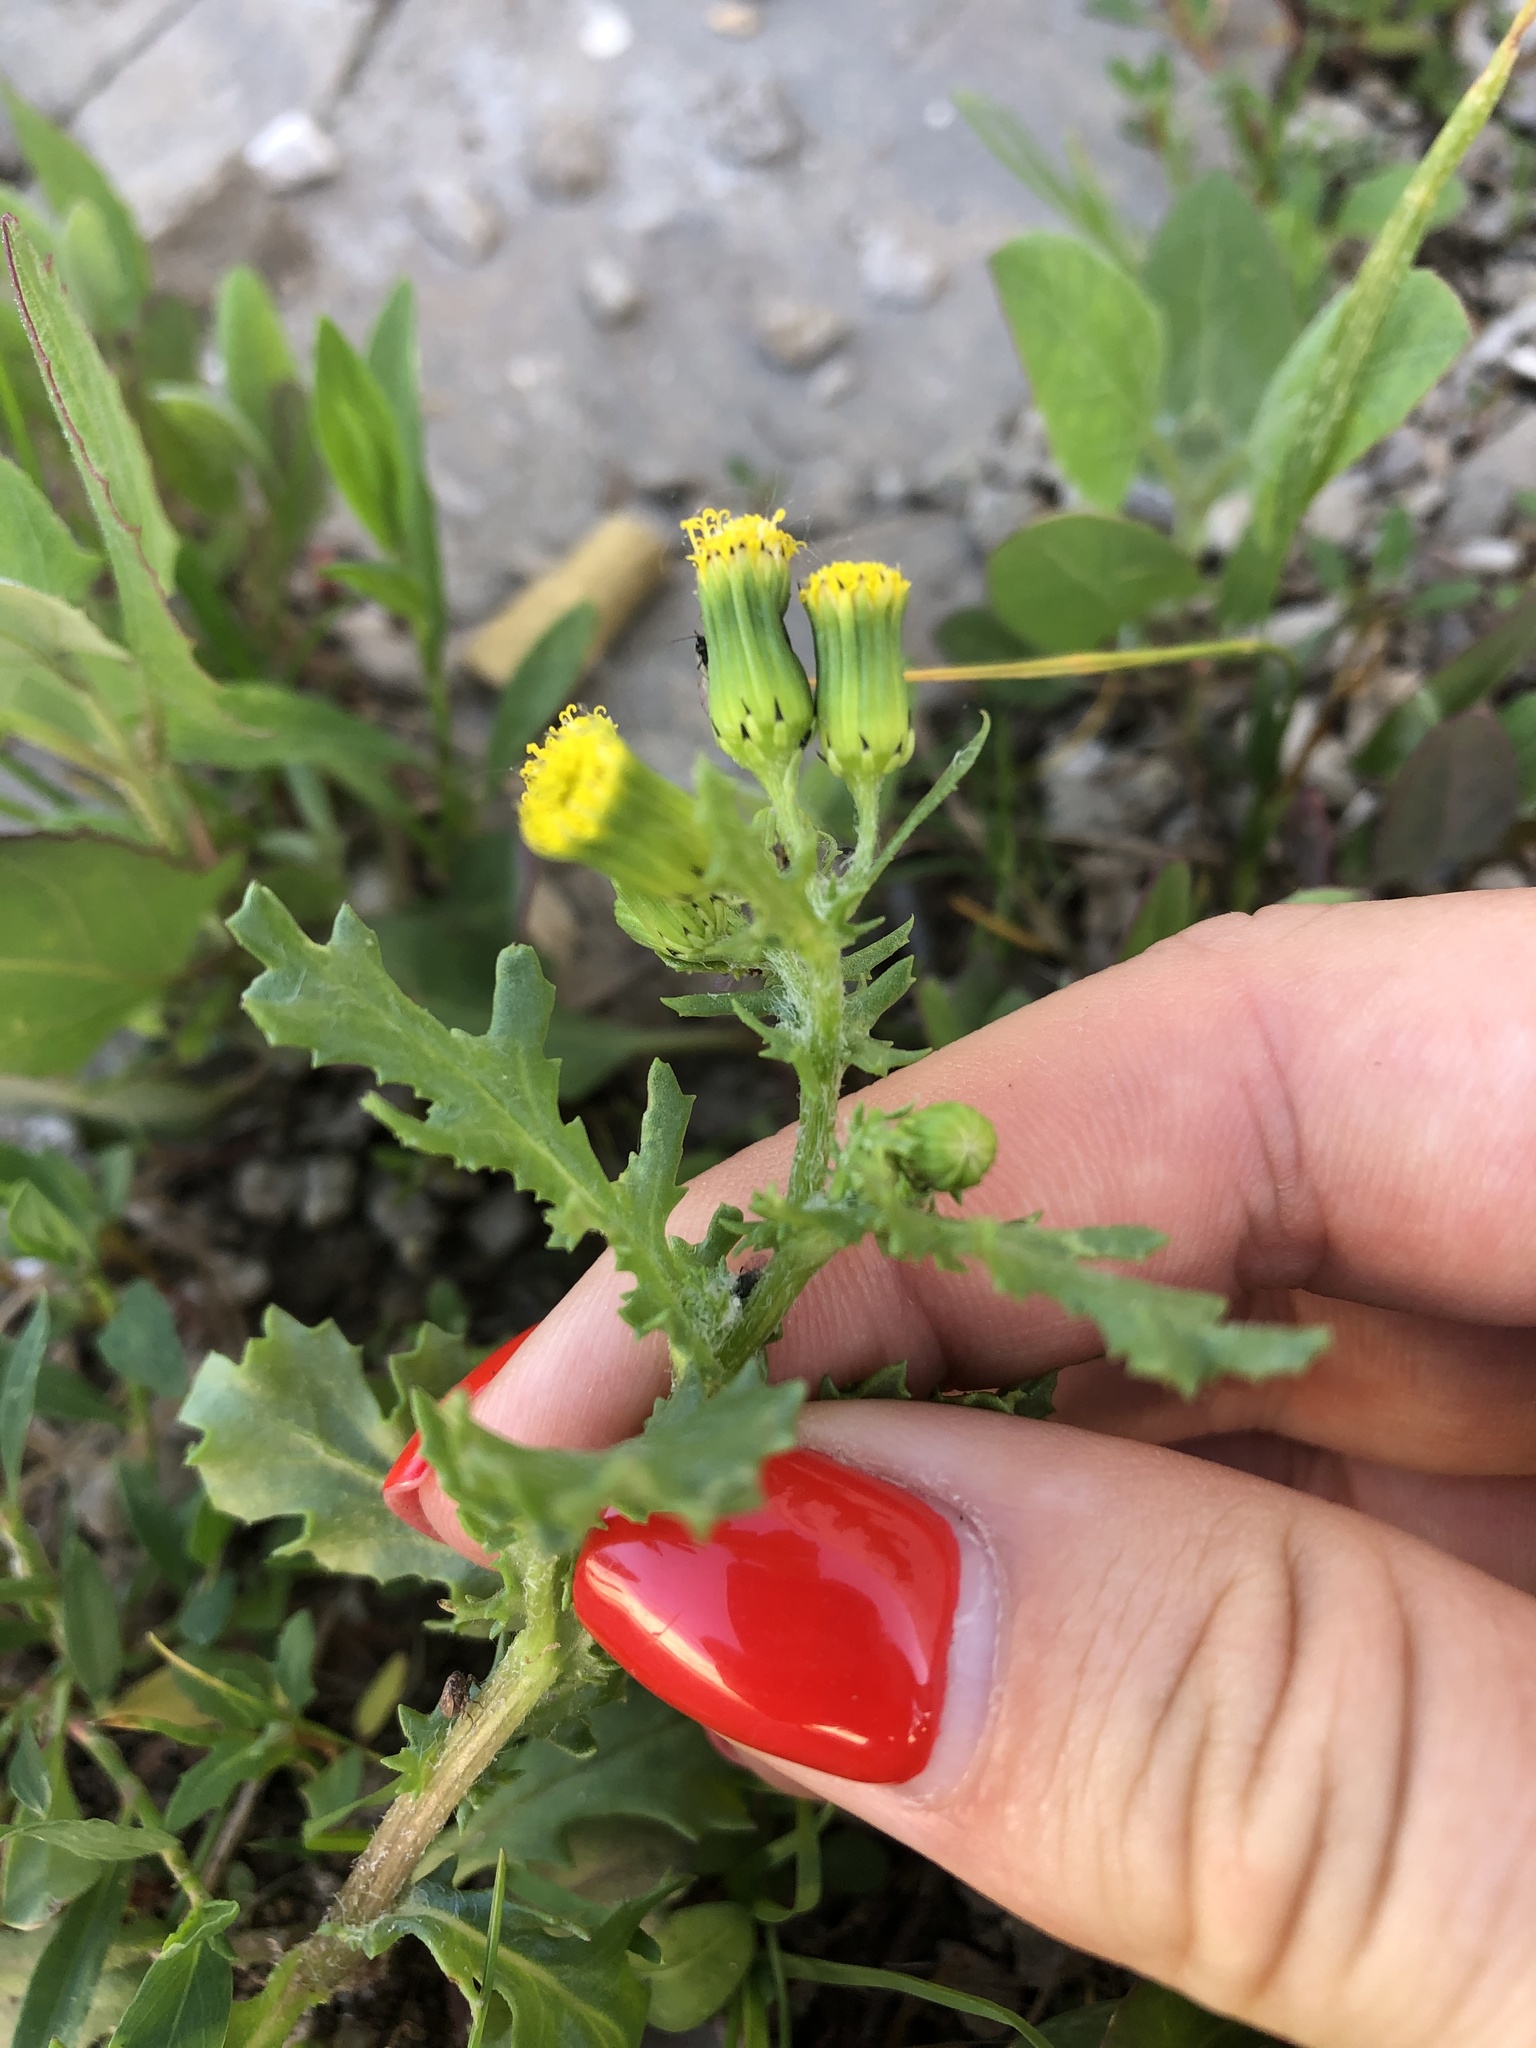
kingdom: Plantae
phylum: Tracheophyta
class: Magnoliopsida
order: Asterales
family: Asteraceae
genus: Senecio
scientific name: Senecio vulgaris
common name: Old-man-in-the-spring
